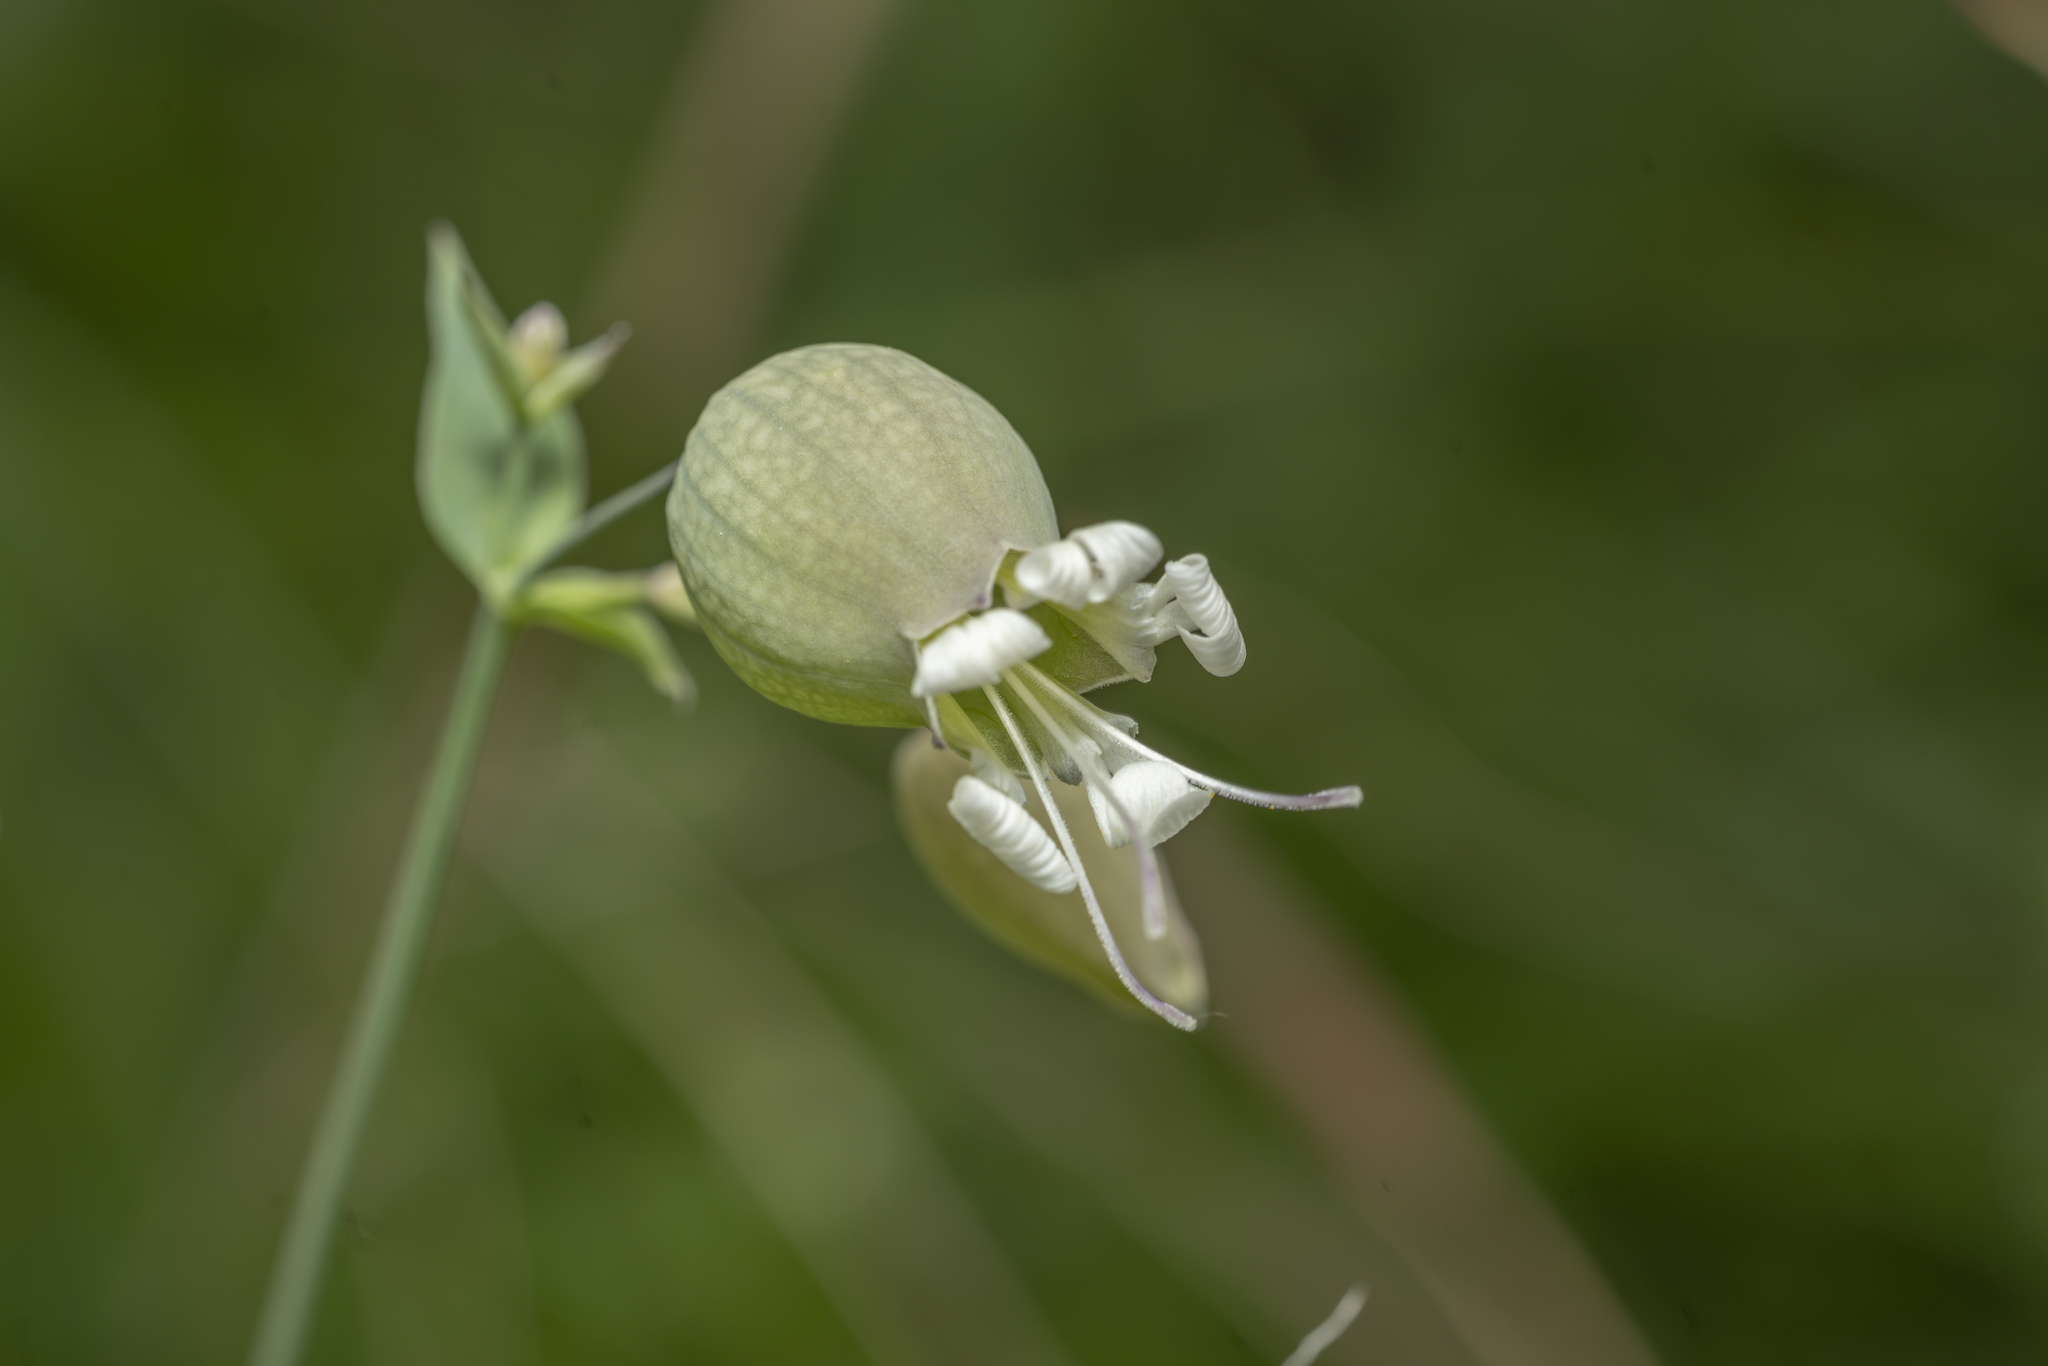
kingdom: Plantae
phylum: Tracheophyta
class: Magnoliopsida
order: Caryophyllales
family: Caryophyllaceae
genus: Silene
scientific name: Silene vulgaris
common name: Bladder campion
